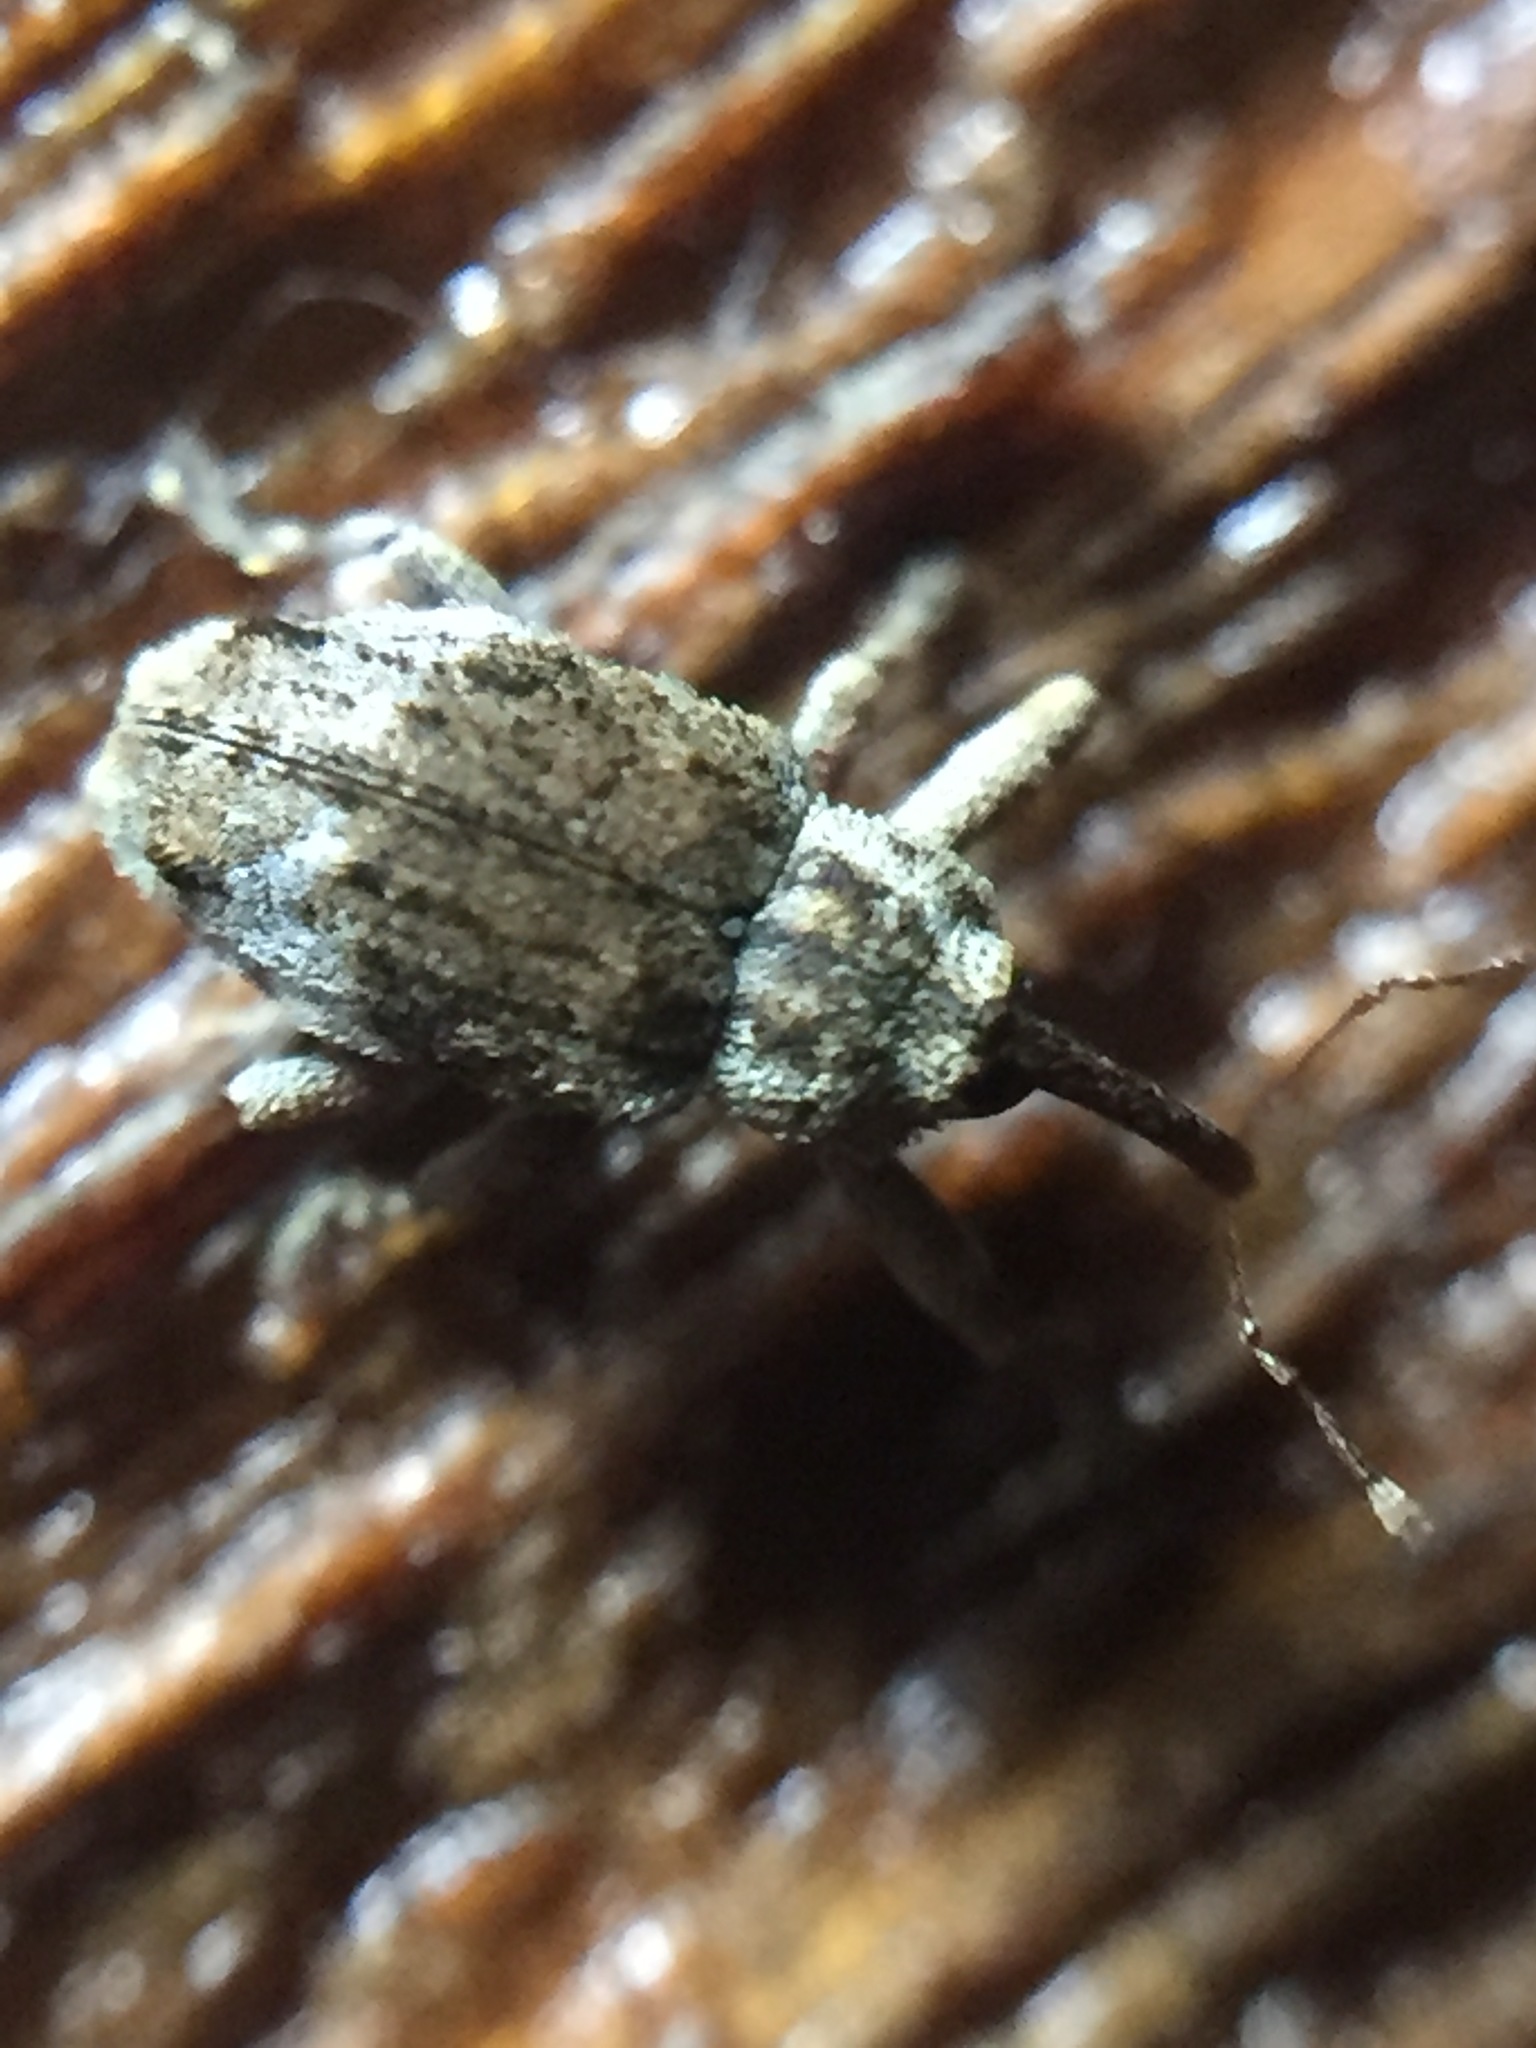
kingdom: Animalia
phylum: Arthropoda
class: Insecta
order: Coleoptera
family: Curculionidae
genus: Emplesis
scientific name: Emplesis bifoveata
